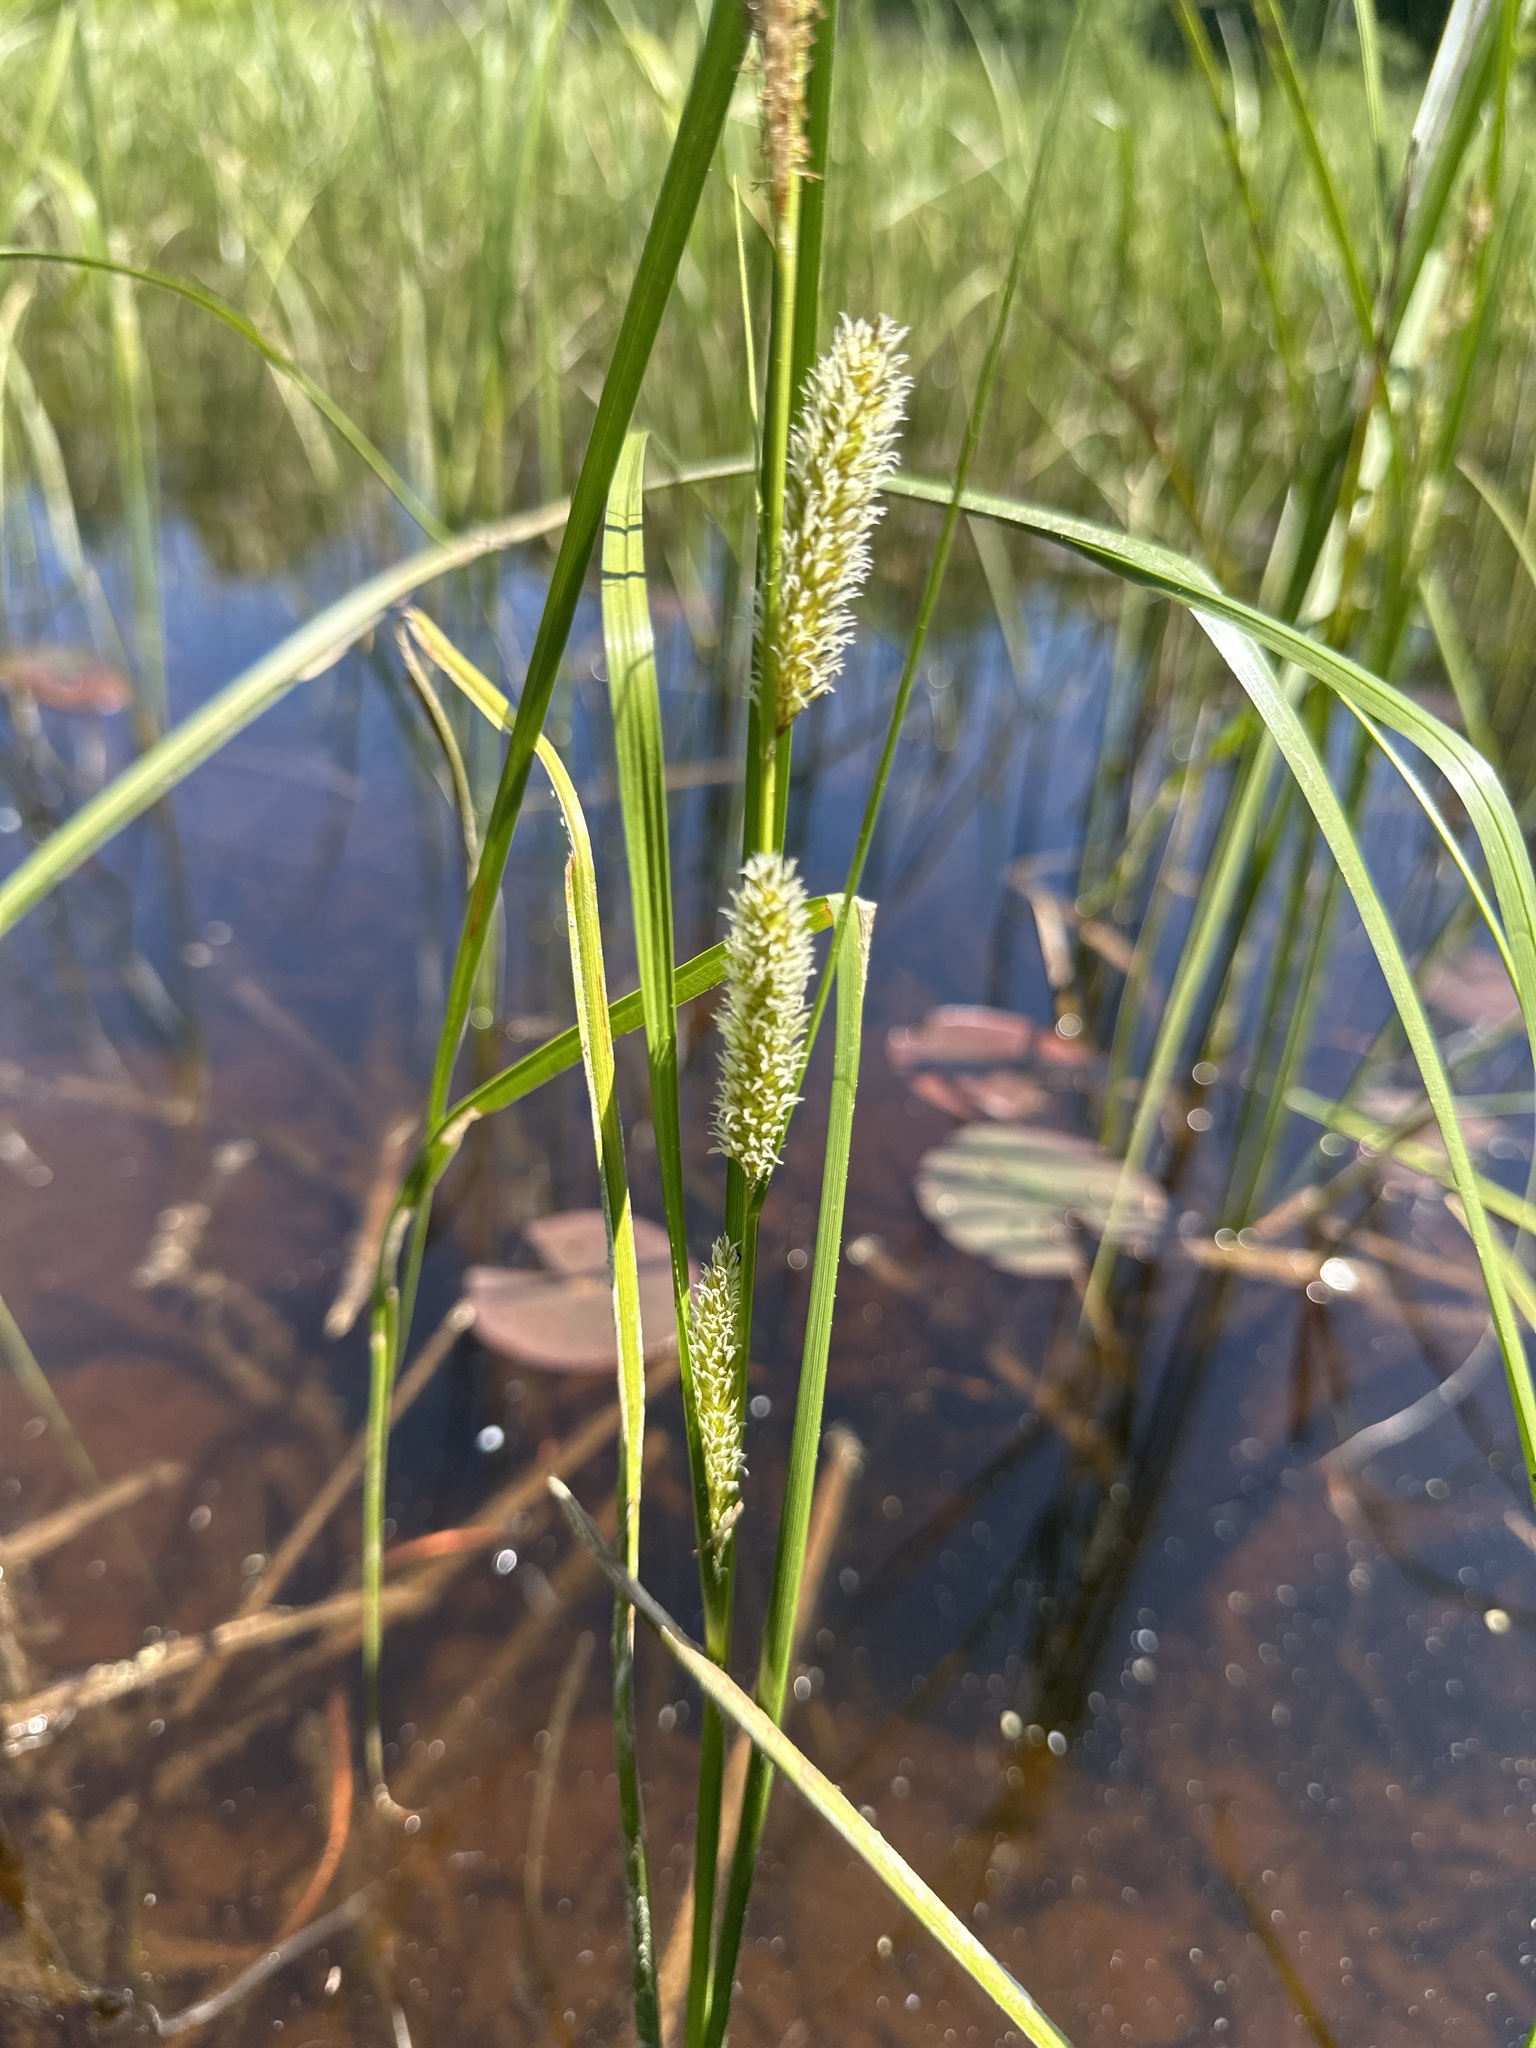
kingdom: Plantae
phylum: Tracheophyta
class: Liliopsida
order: Poales
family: Cyperaceae
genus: Carex
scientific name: Carex utriculata
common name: Beaked sedge
